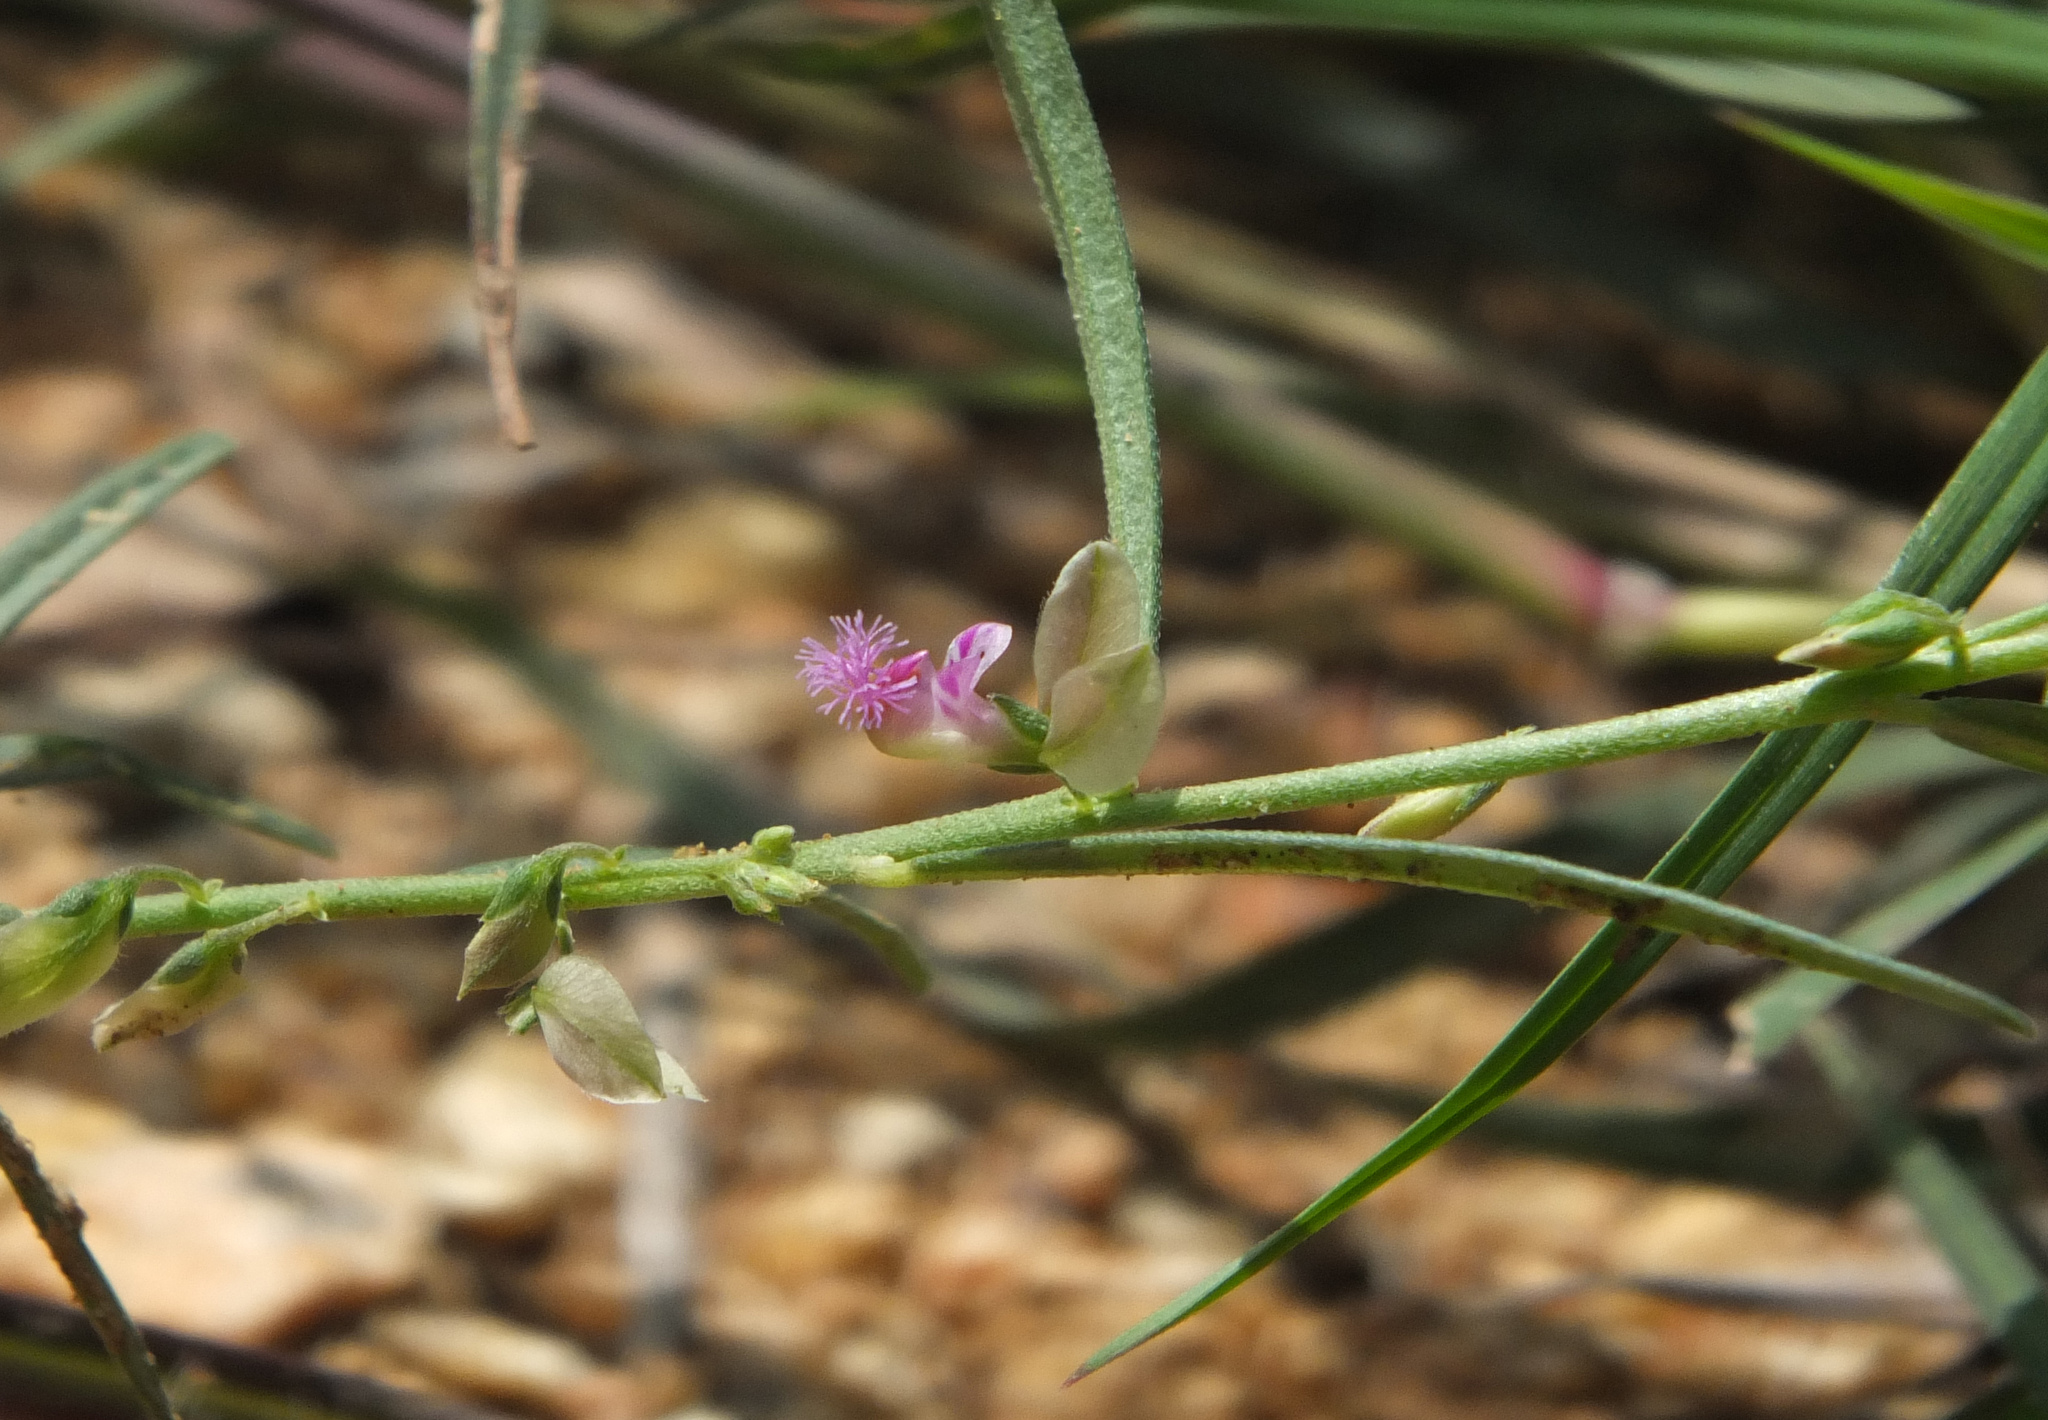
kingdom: Plantae
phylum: Tracheophyta
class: Magnoliopsida
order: Fabales
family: Polygalaceae
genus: Polygala
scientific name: Polygala erioptera
